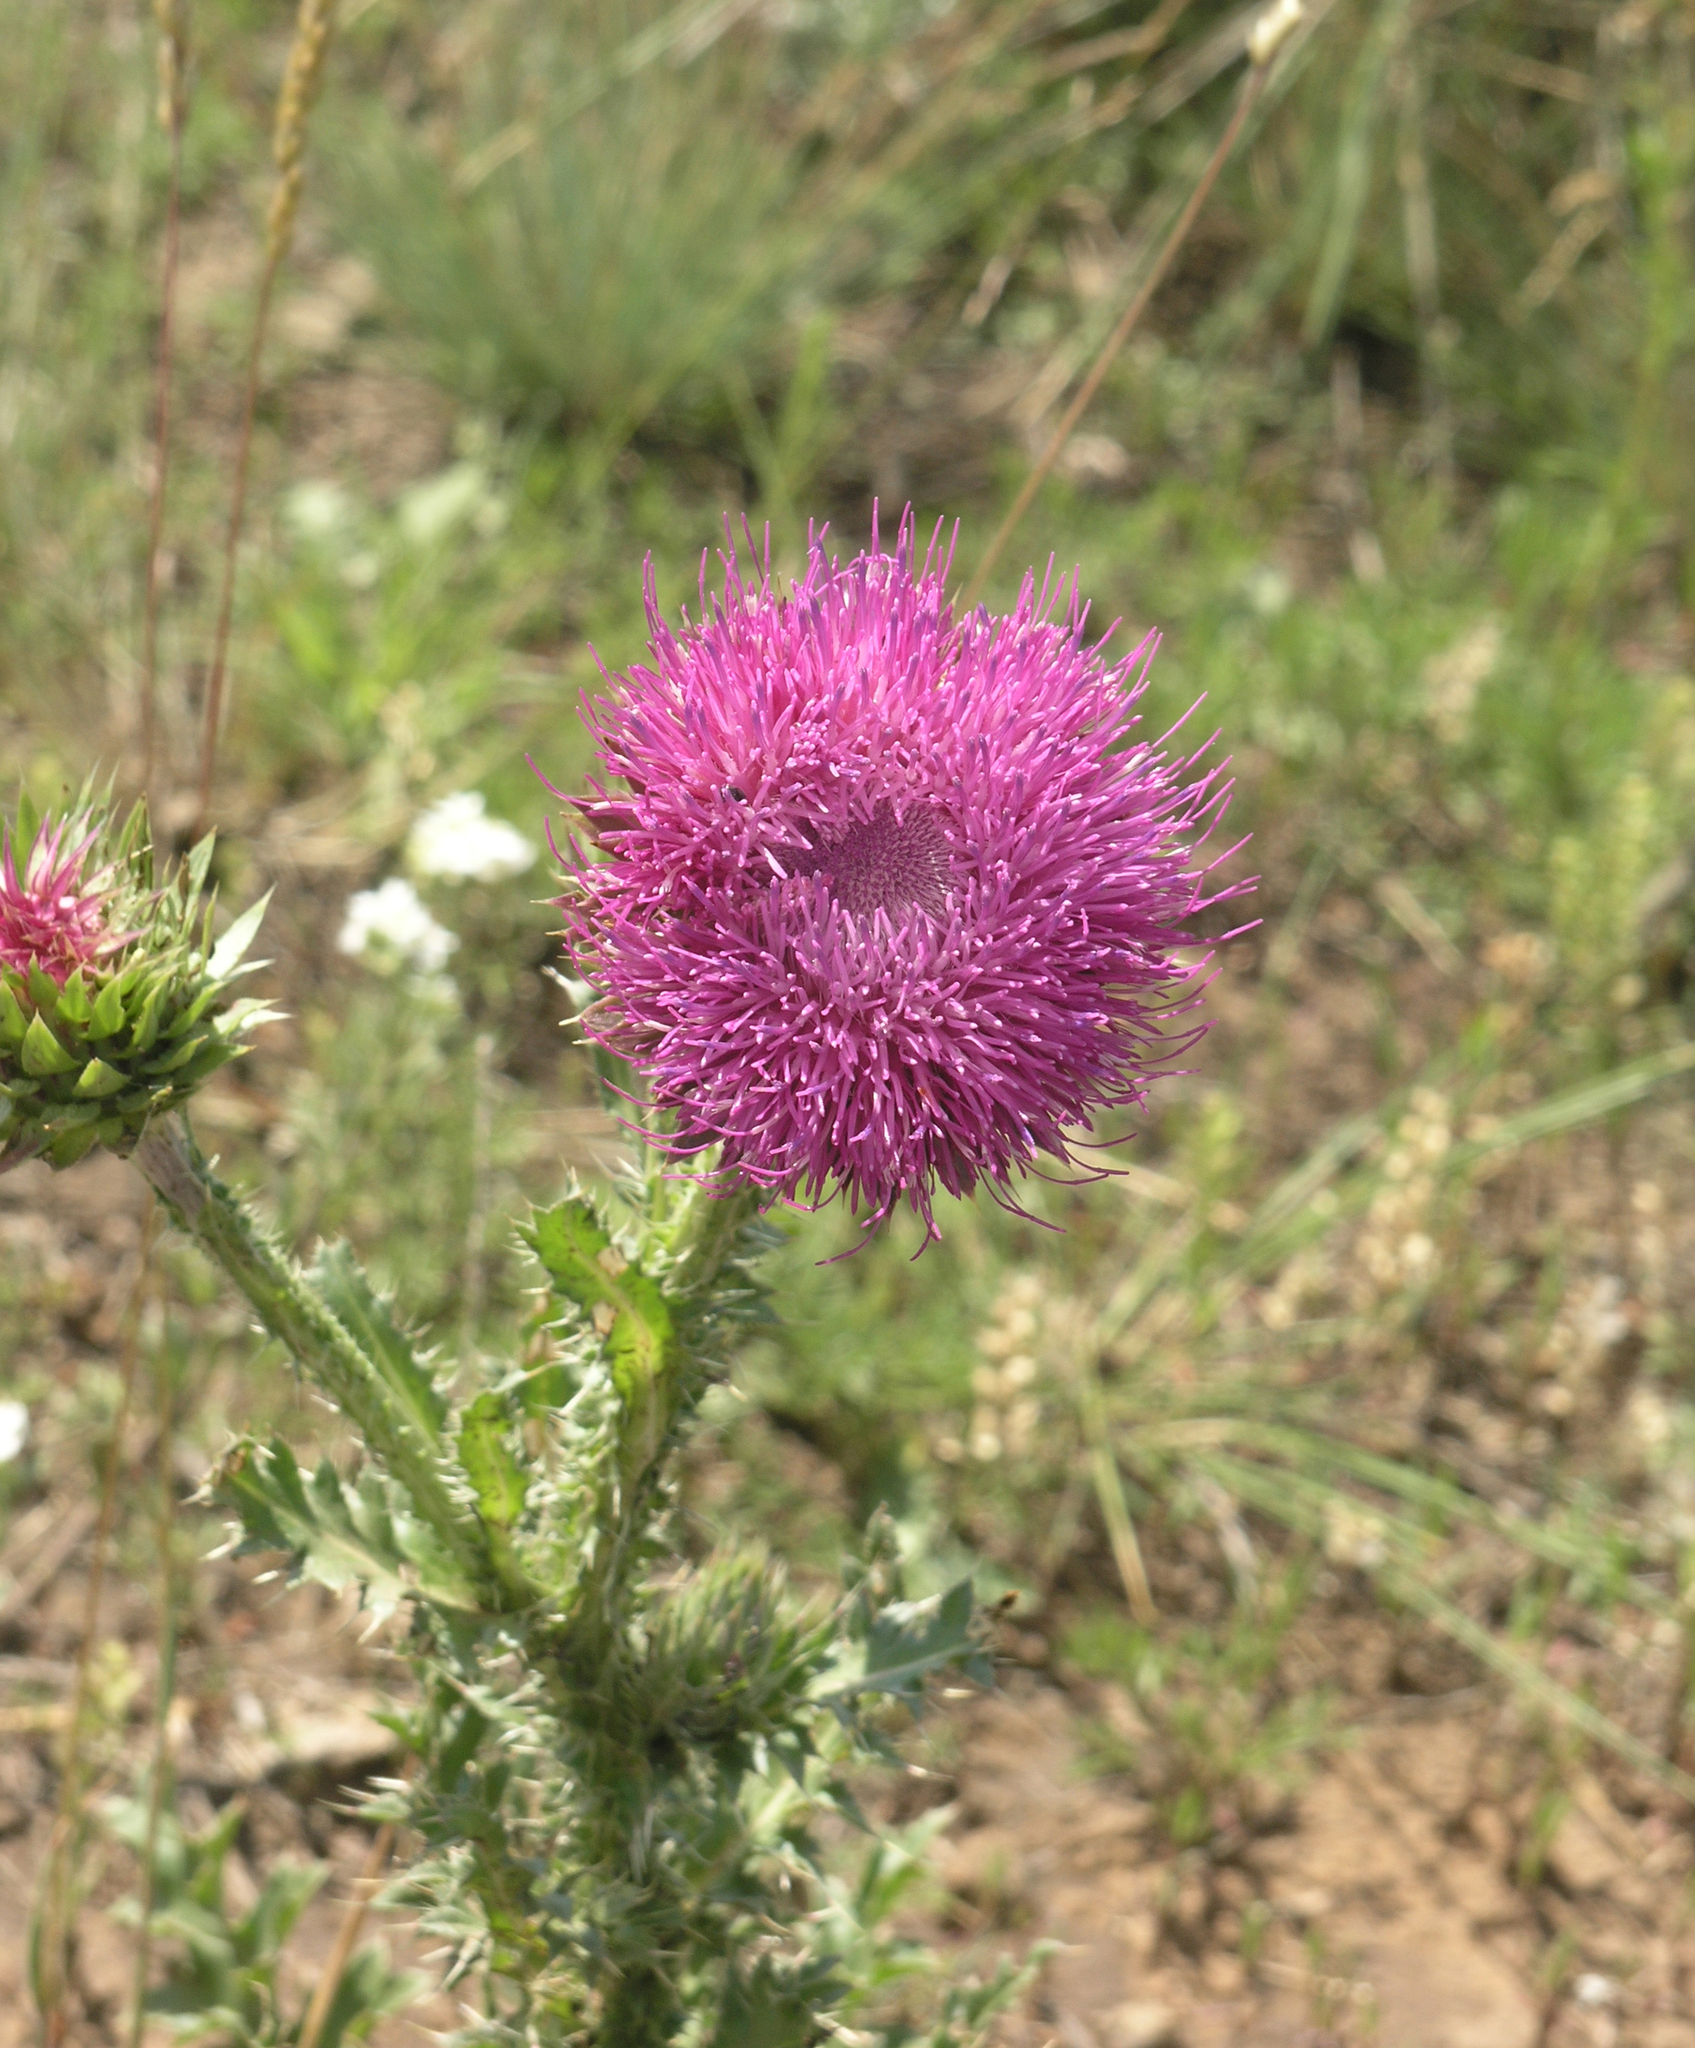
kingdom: Plantae
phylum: Tracheophyta
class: Magnoliopsida
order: Asterales
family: Asteraceae
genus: Carduus
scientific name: Carduus nutans
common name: Musk thistle
